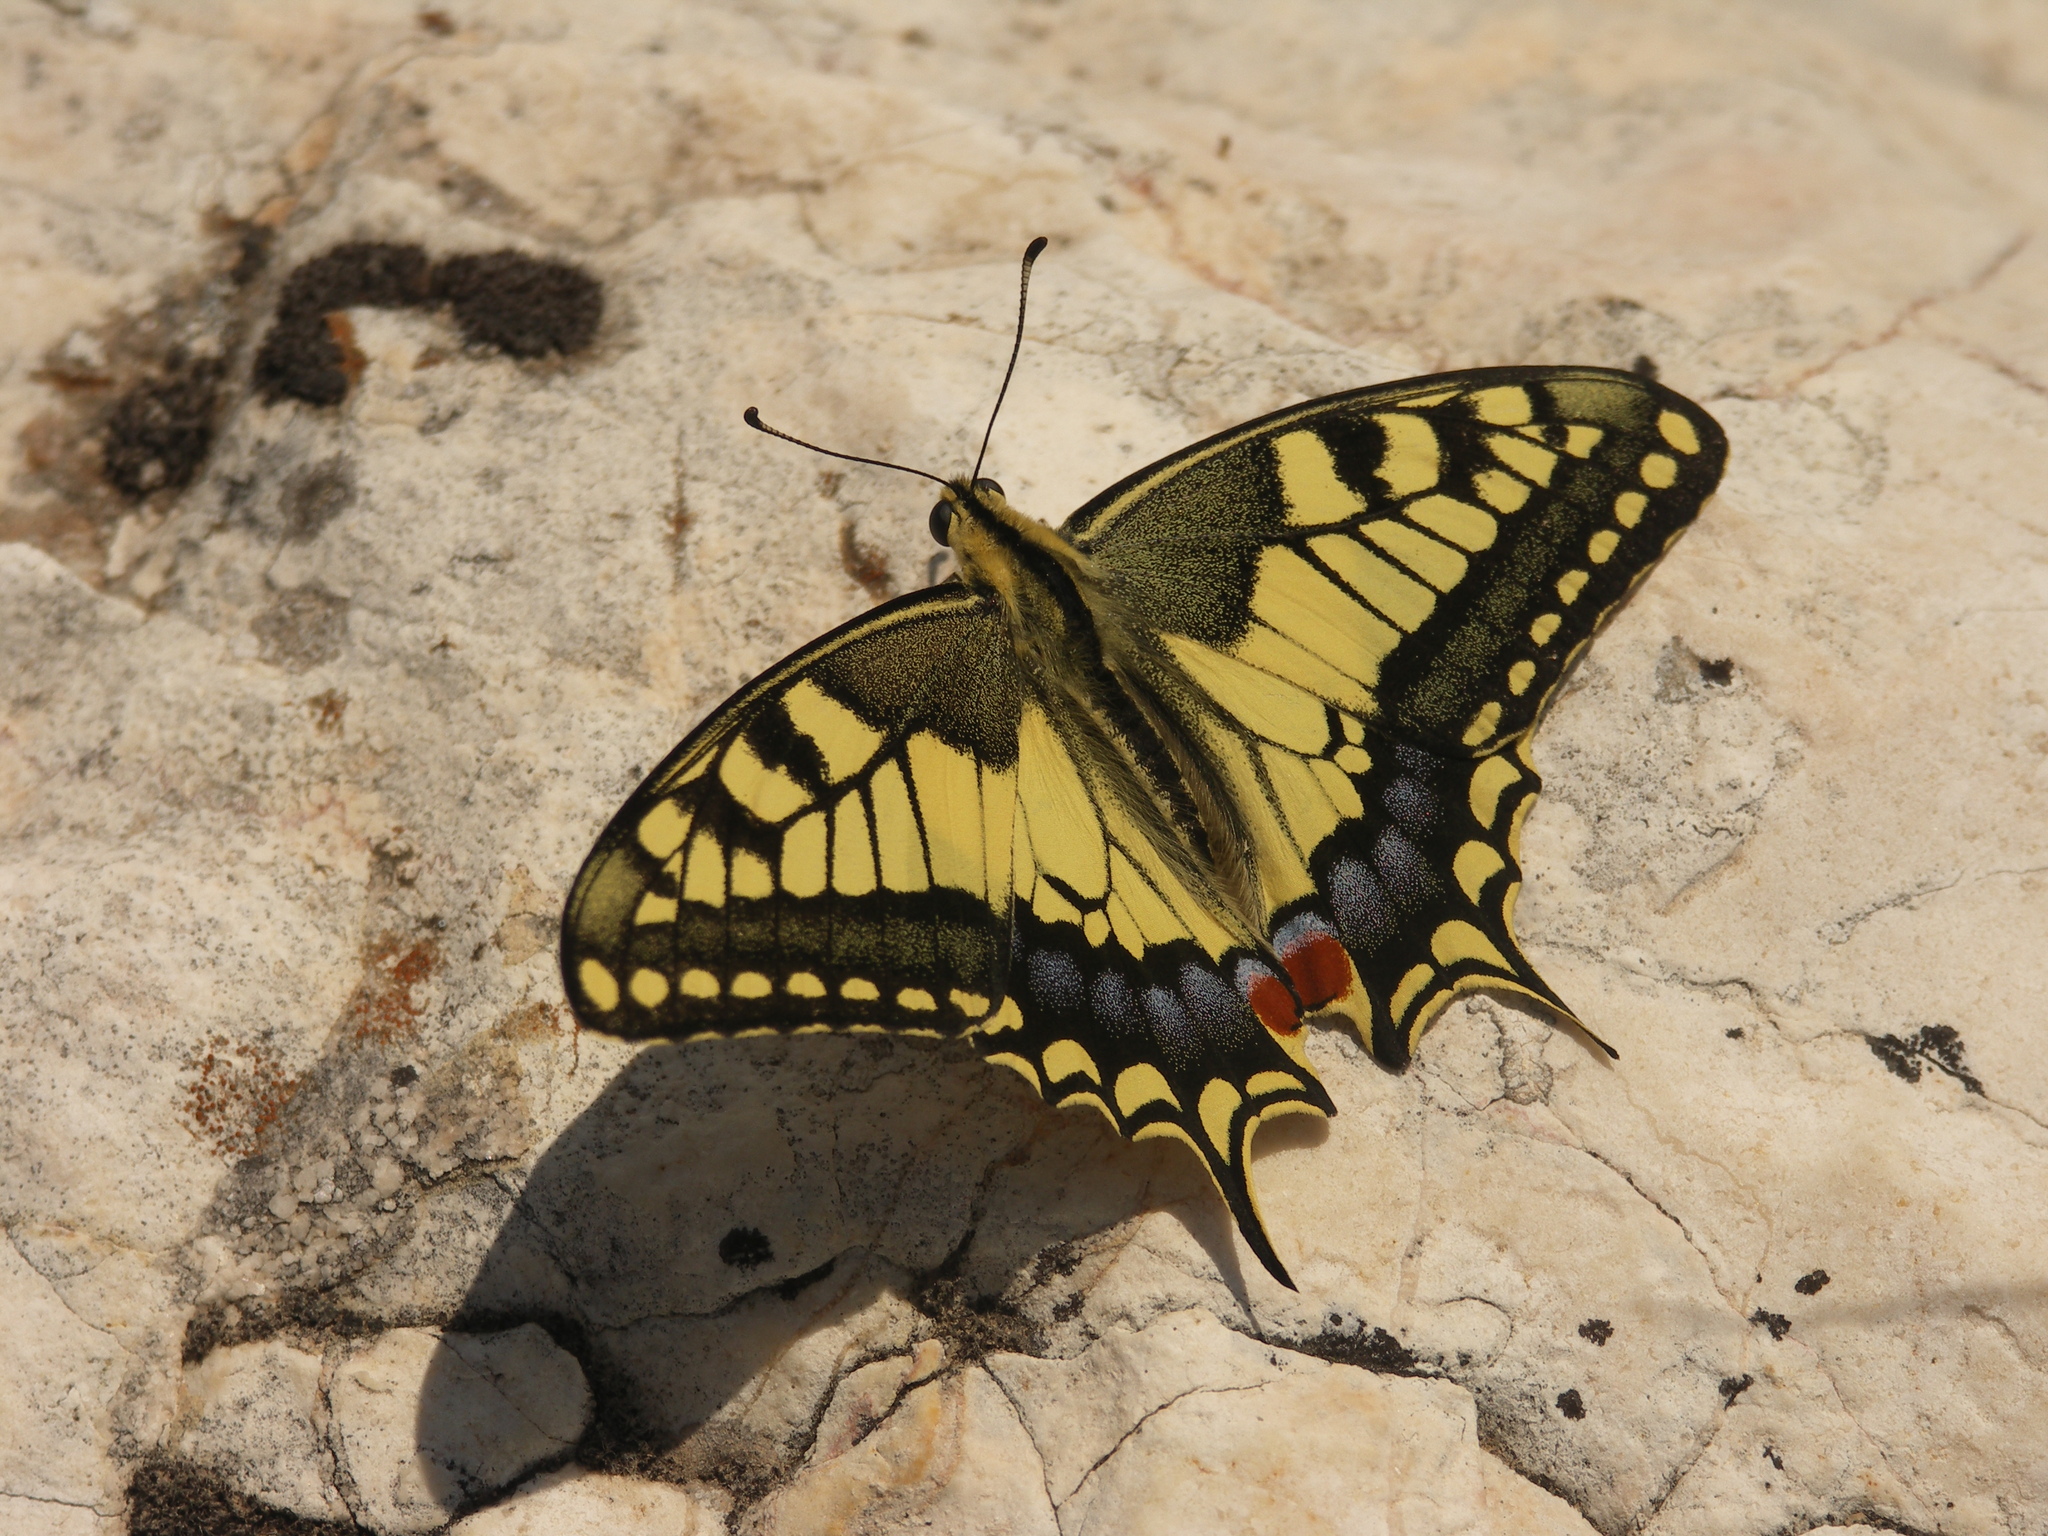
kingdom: Animalia
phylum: Arthropoda
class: Insecta
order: Lepidoptera
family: Papilionidae
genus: Papilio
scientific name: Papilio machaon
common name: Swallowtail
